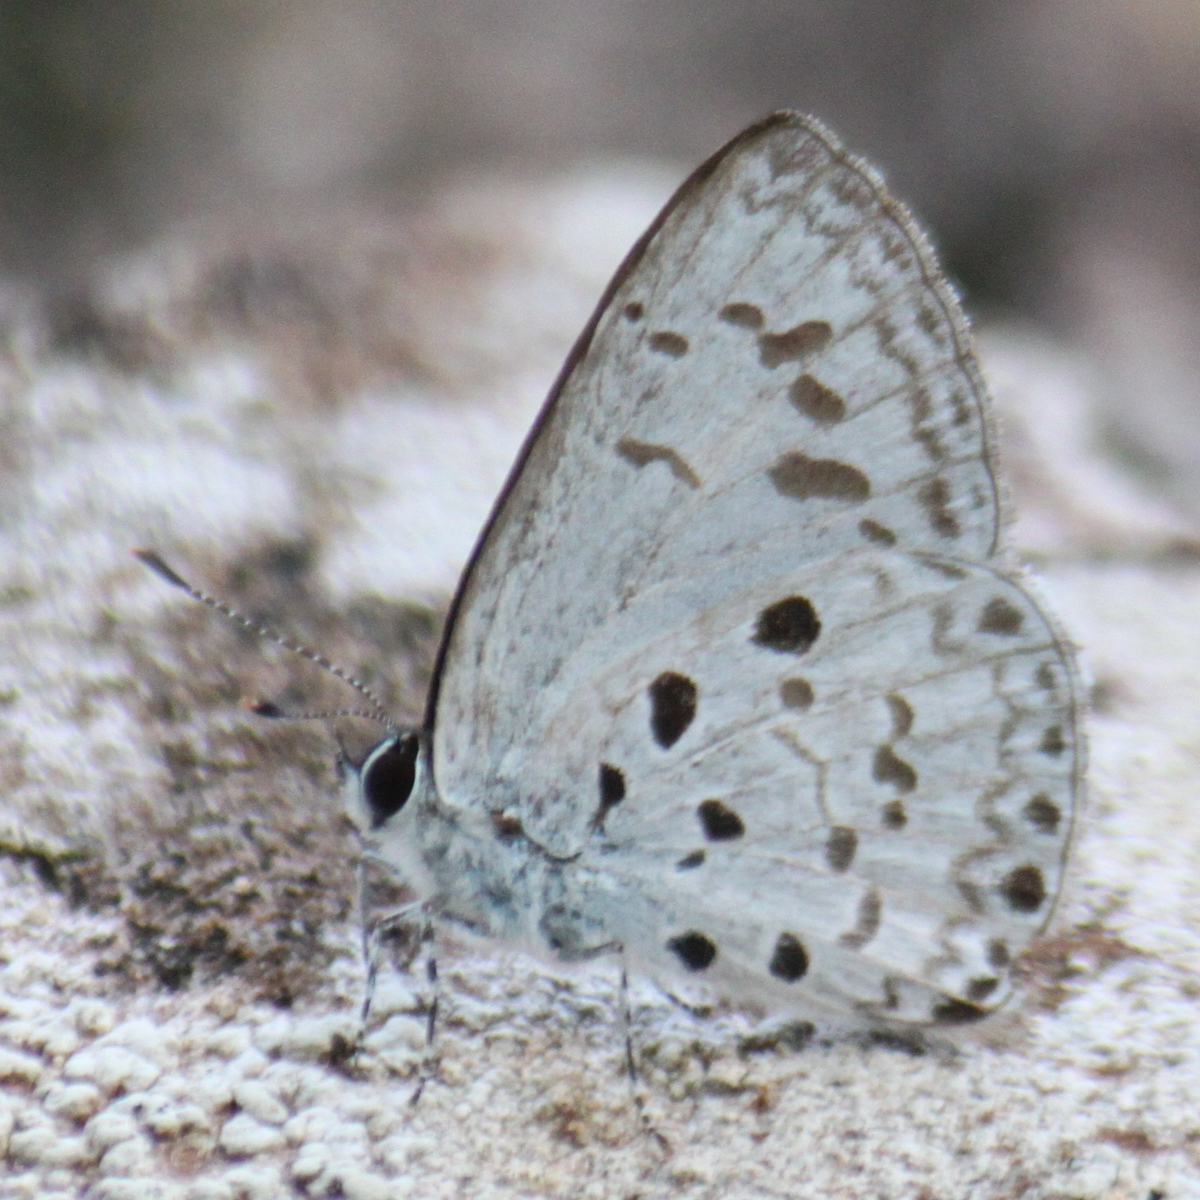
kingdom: Animalia
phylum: Arthropoda
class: Insecta
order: Lepidoptera
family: Lycaenidae
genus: Acytolepis
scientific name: Acytolepis puspa
